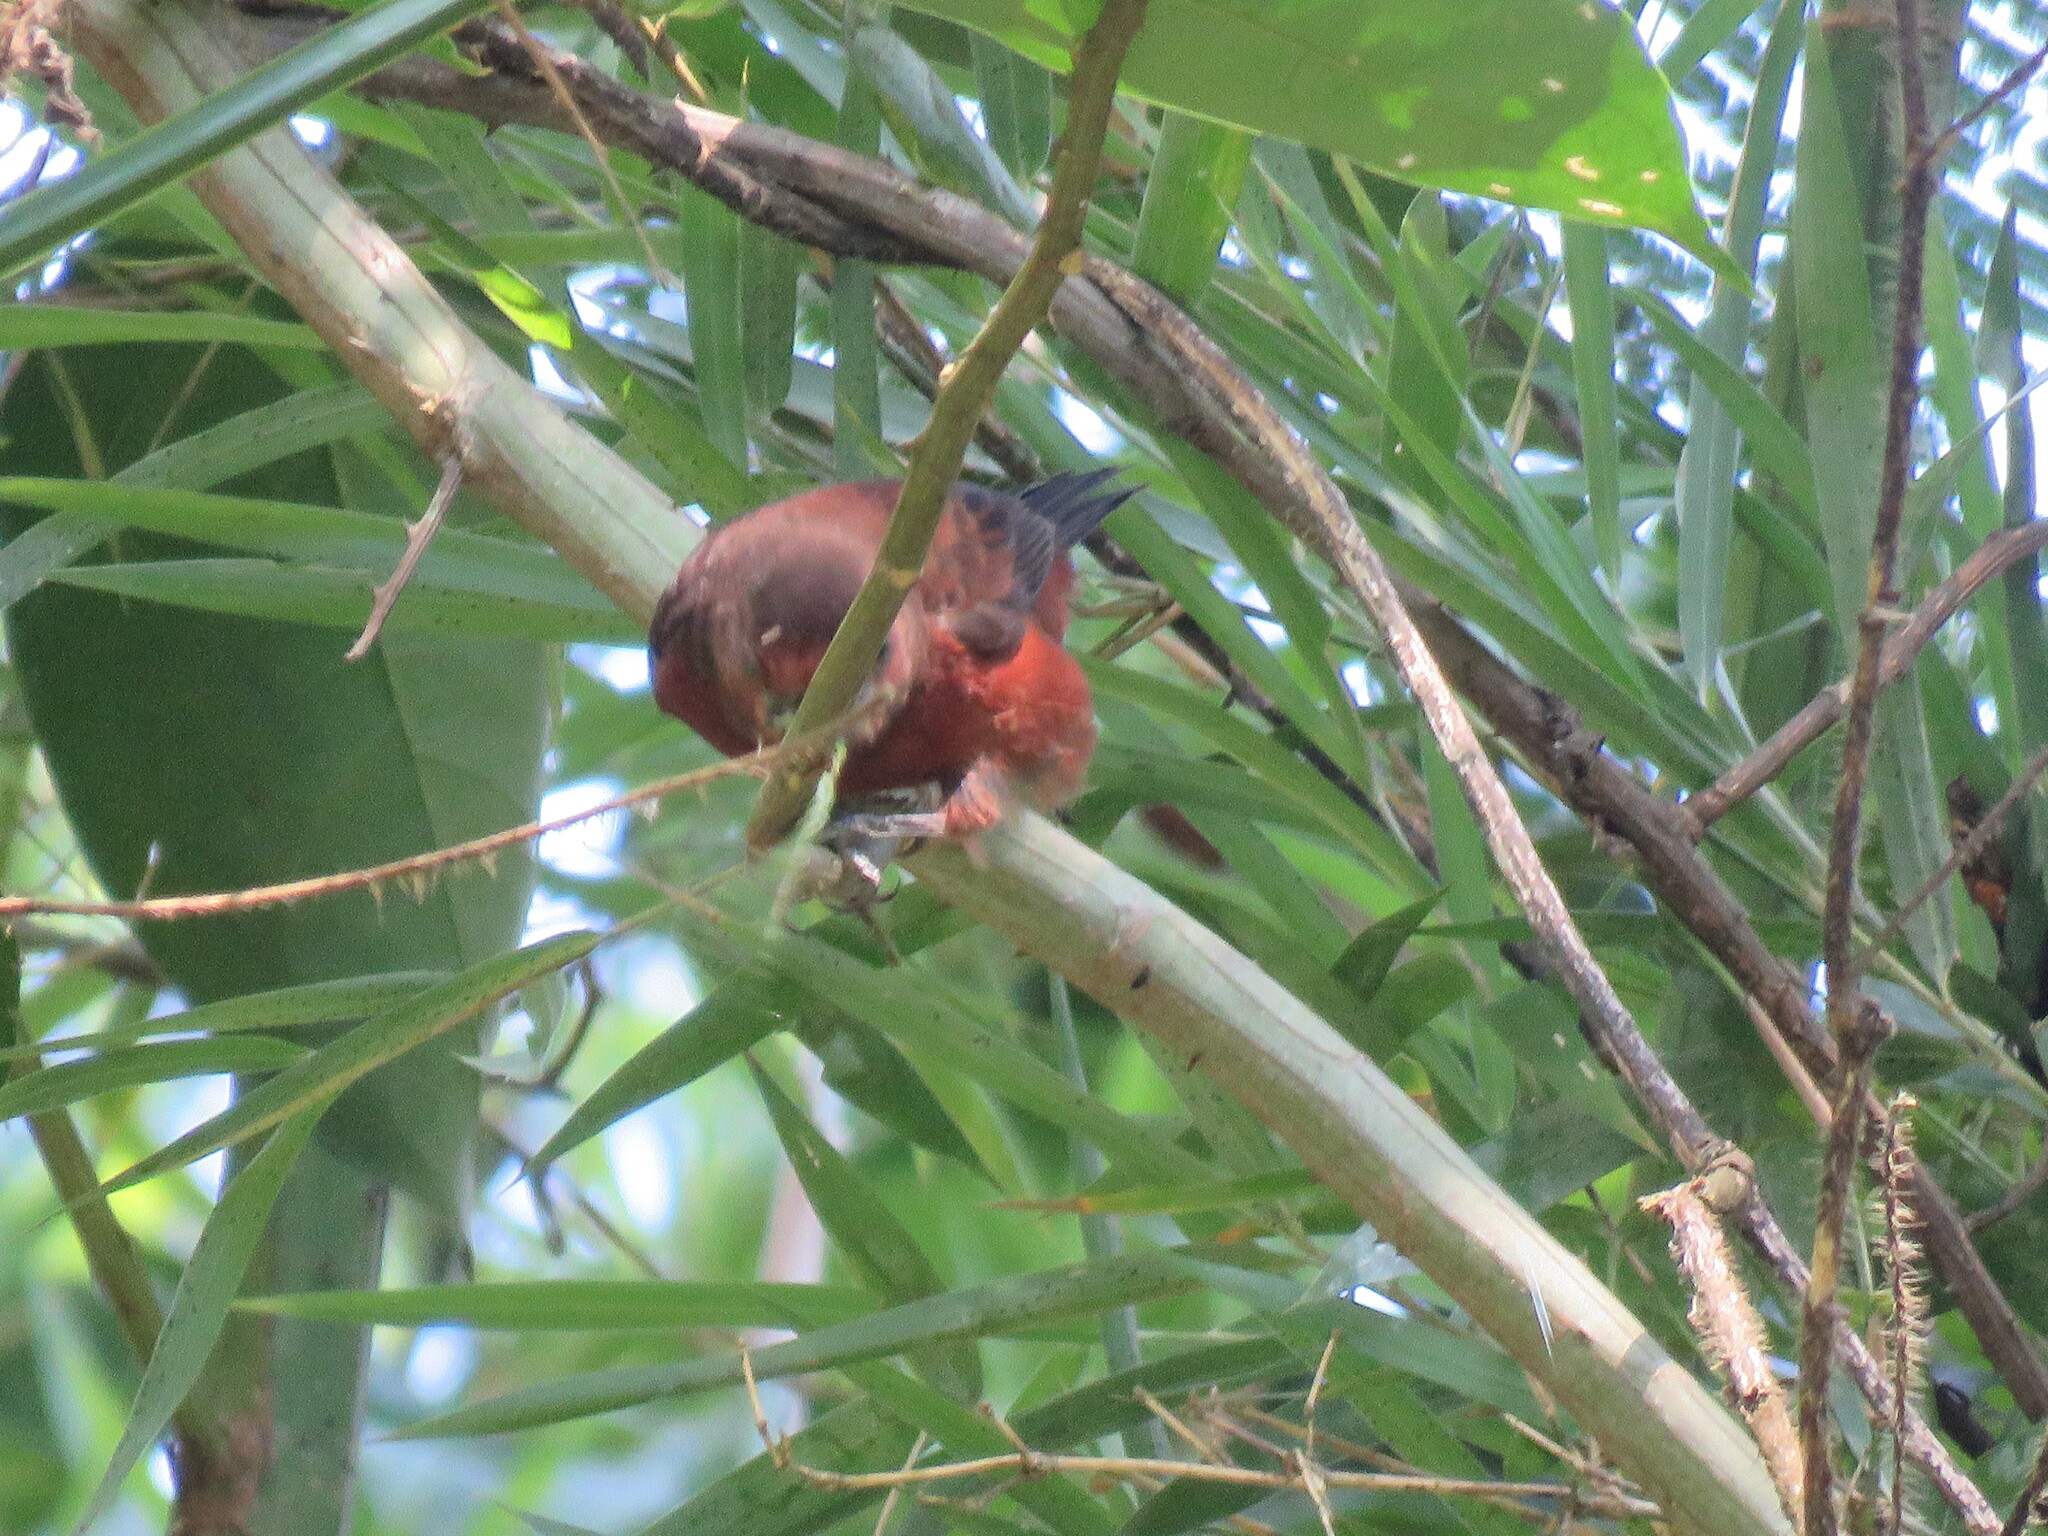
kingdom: Animalia
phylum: Chordata
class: Aves
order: Passeriformes
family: Thraupidae
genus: Ramphocelus
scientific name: Ramphocelus carbo
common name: Silver-beaked tanager
